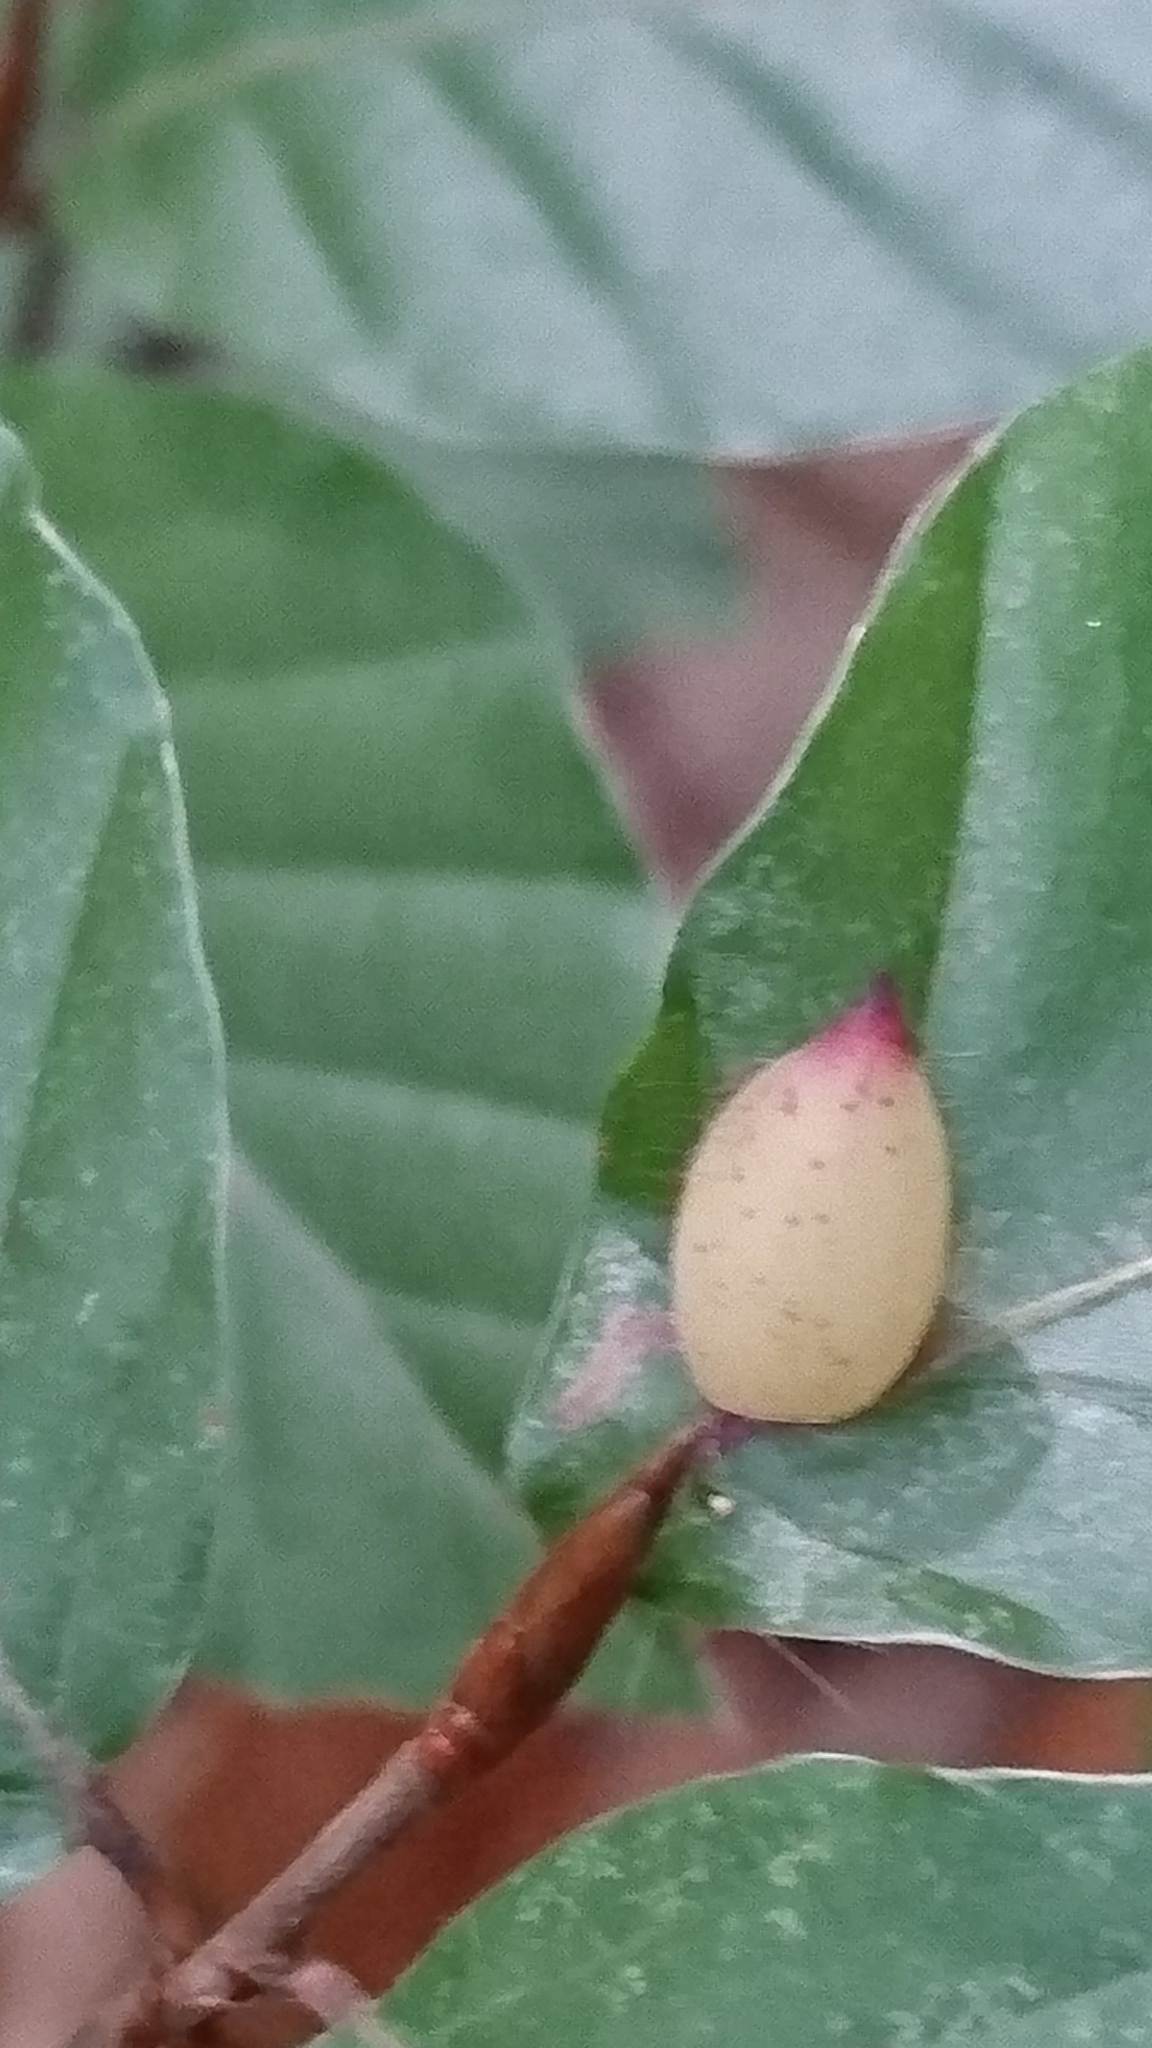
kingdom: Animalia
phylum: Arthropoda
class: Insecta
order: Diptera
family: Cecidomyiidae
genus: Mikiola
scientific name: Mikiola fagi
